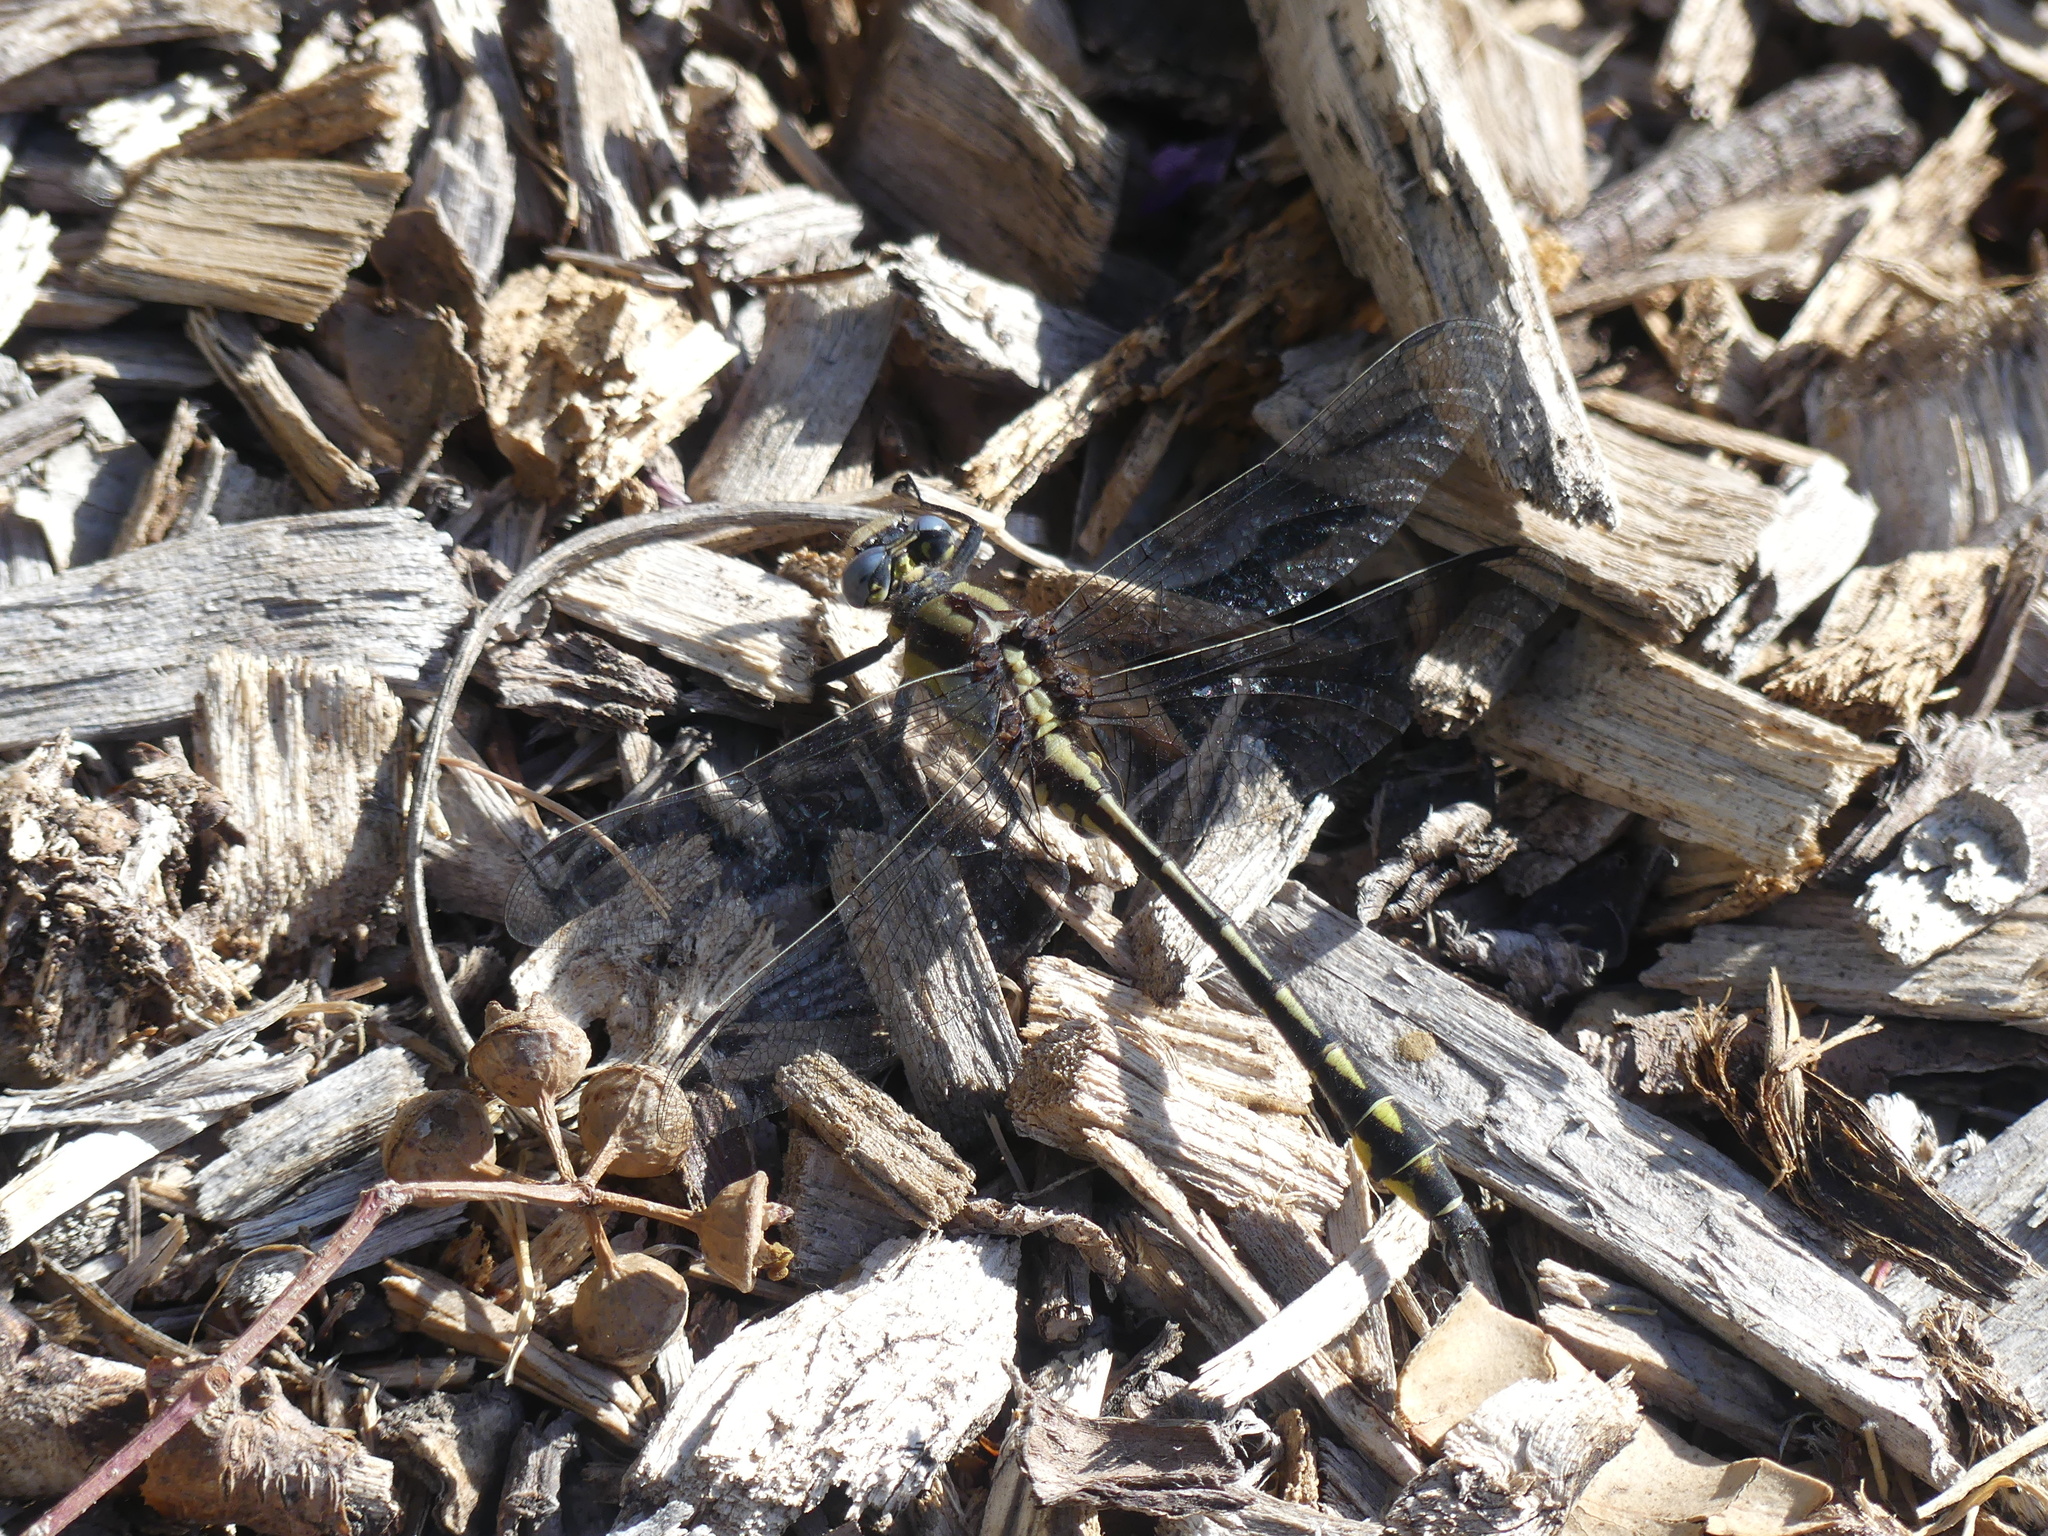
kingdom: Animalia
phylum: Arthropoda
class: Insecta
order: Odonata
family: Gomphidae
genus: Phanogomphus
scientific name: Phanogomphus kurilis
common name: Pacific clubtail
